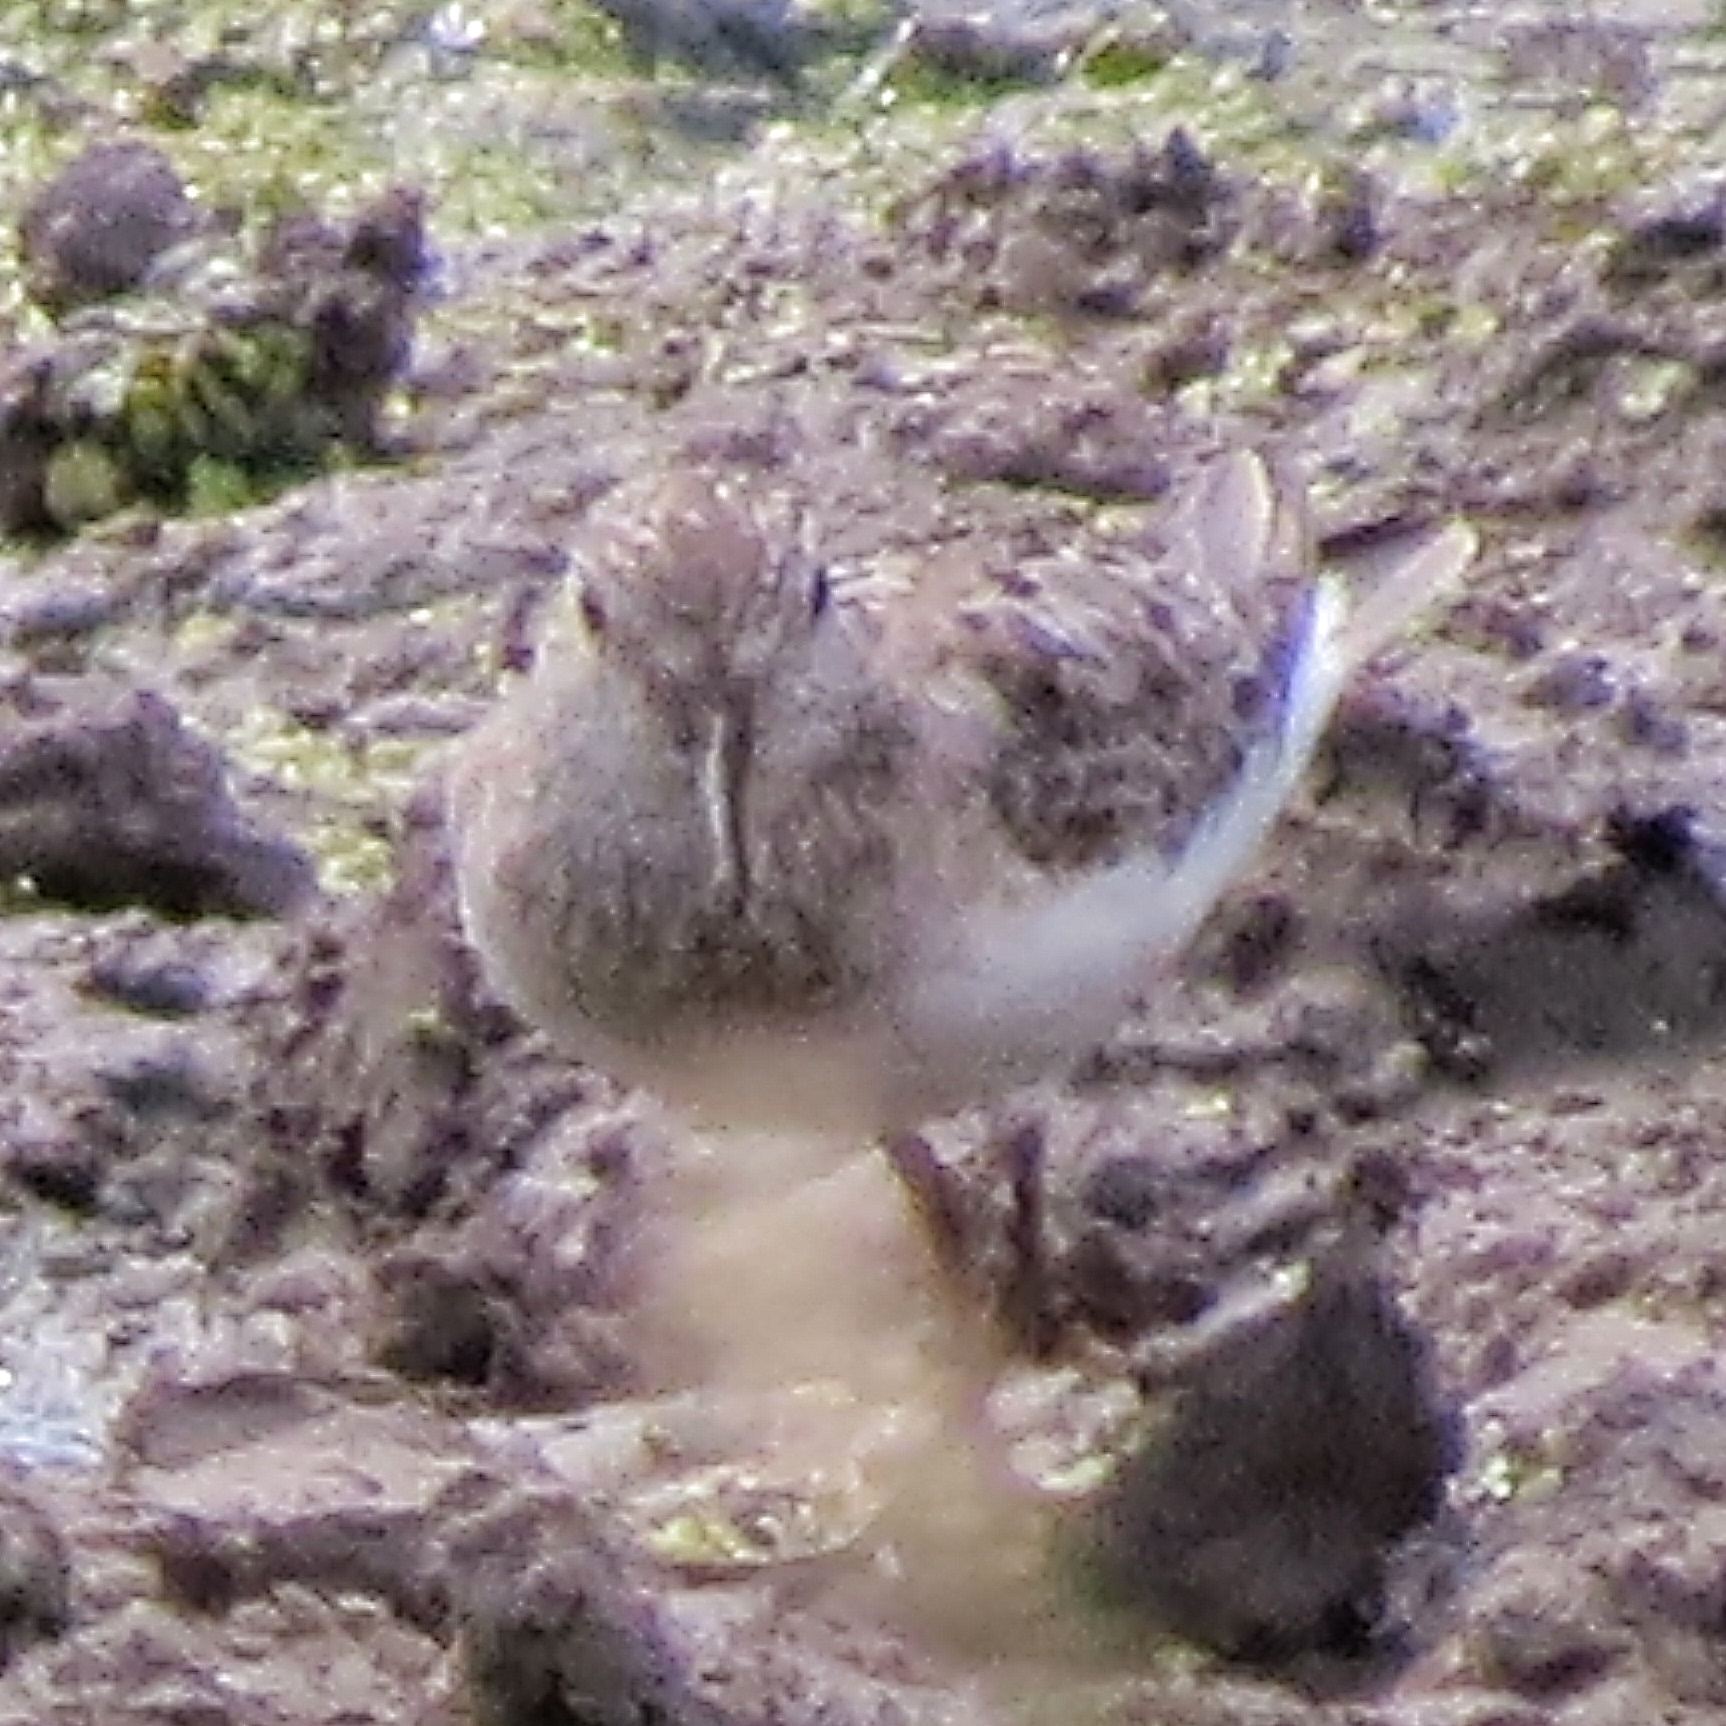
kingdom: Animalia
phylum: Chordata
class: Aves
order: Charadriiformes
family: Scolopacidae
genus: Calidris
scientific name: Calidris temminckii
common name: Temminck's stint
